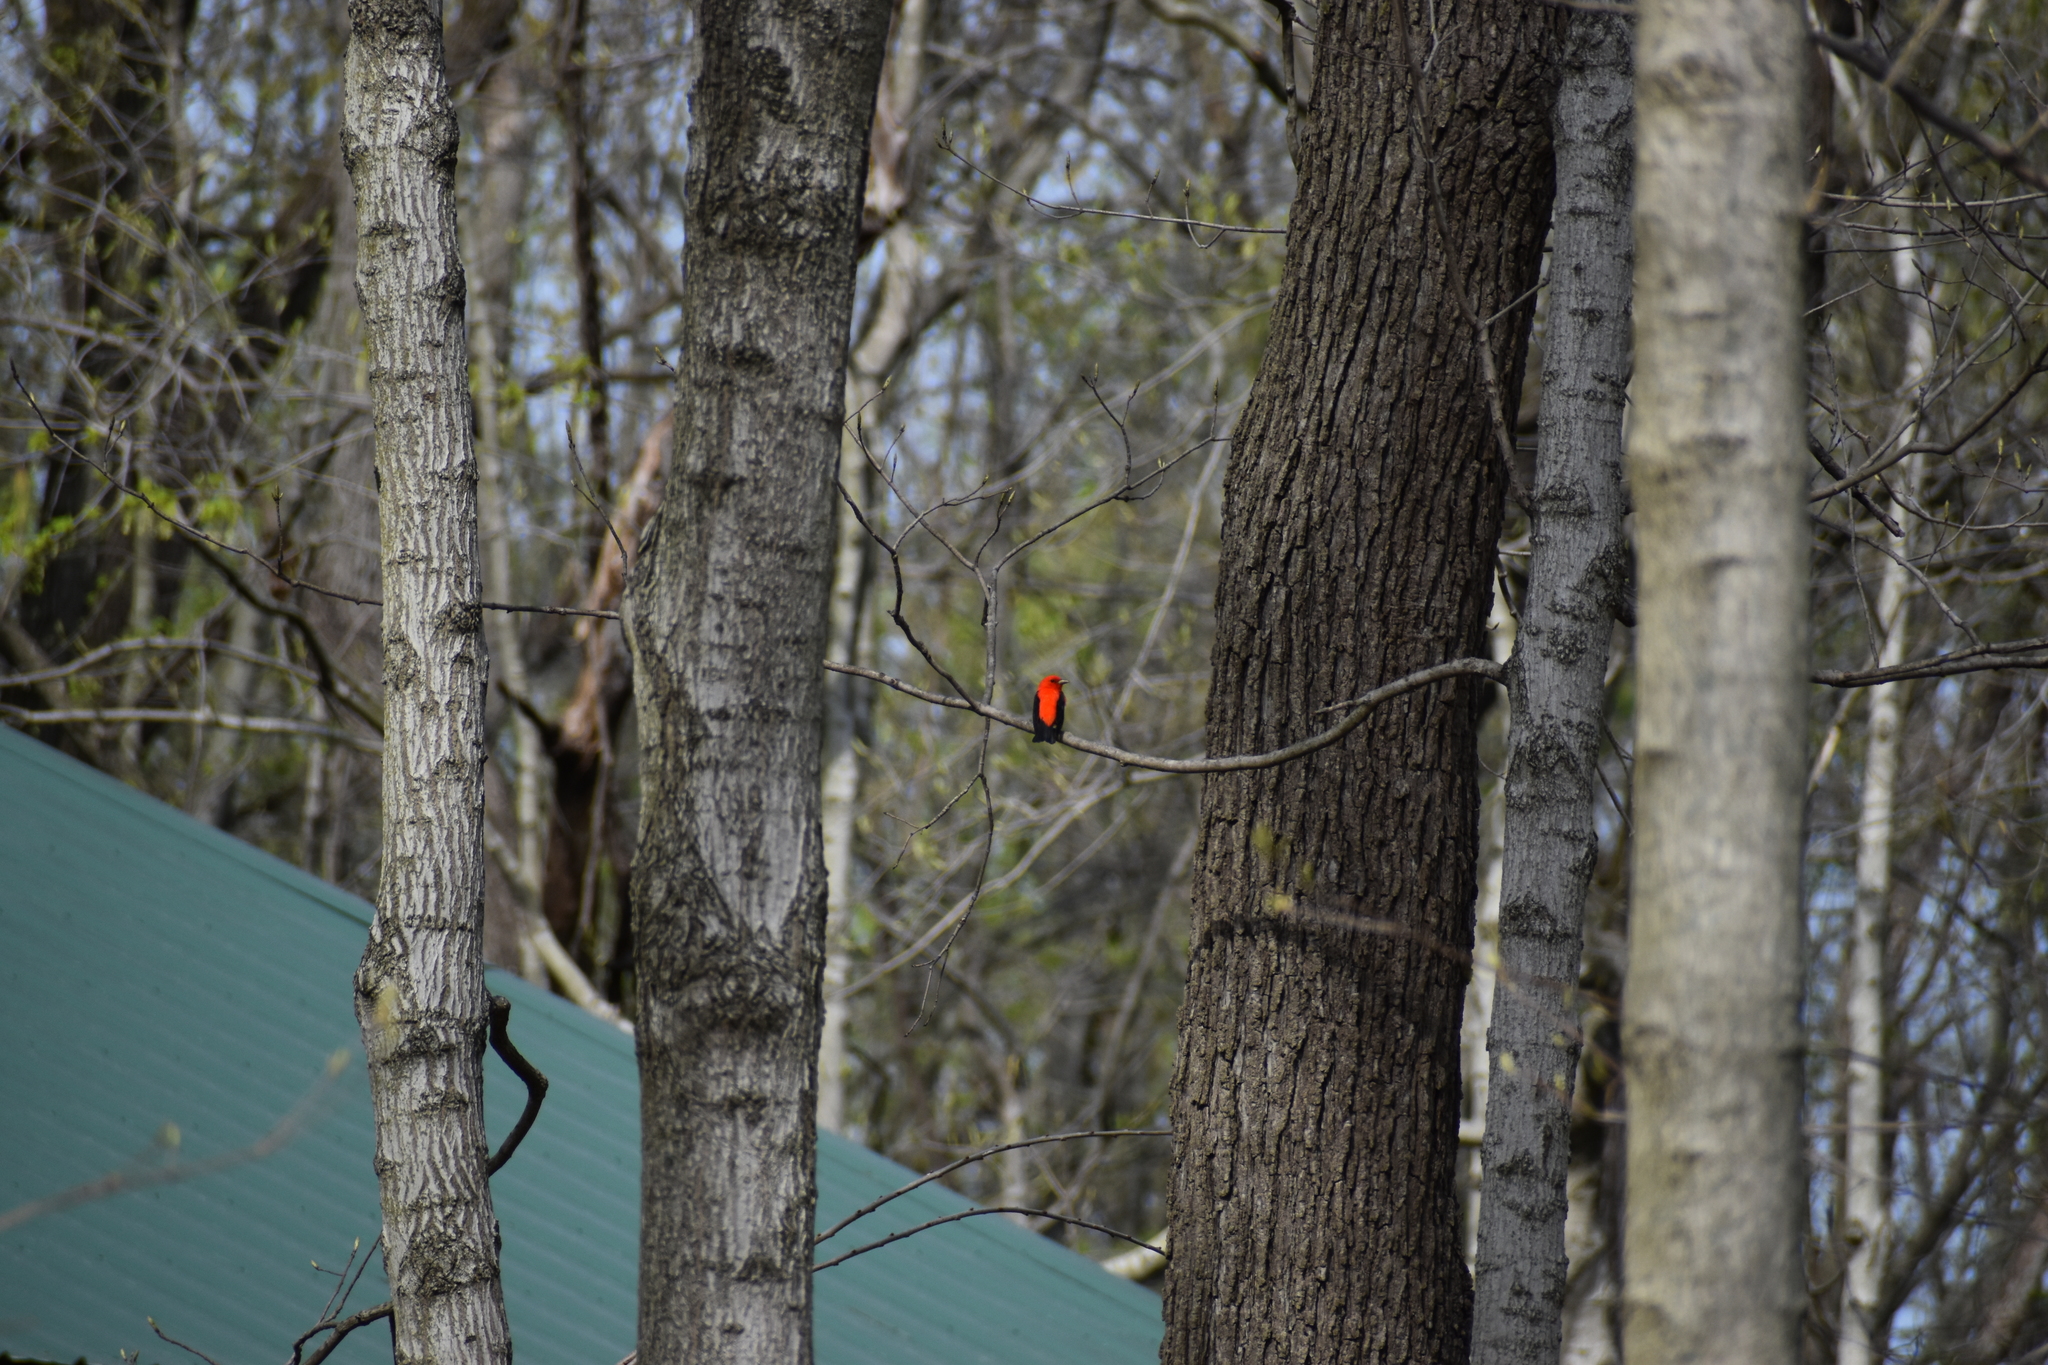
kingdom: Animalia
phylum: Chordata
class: Aves
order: Passeriformes
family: Cardinalidae
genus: Piranga
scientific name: Piranga olivacea
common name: Scarlet tanager
